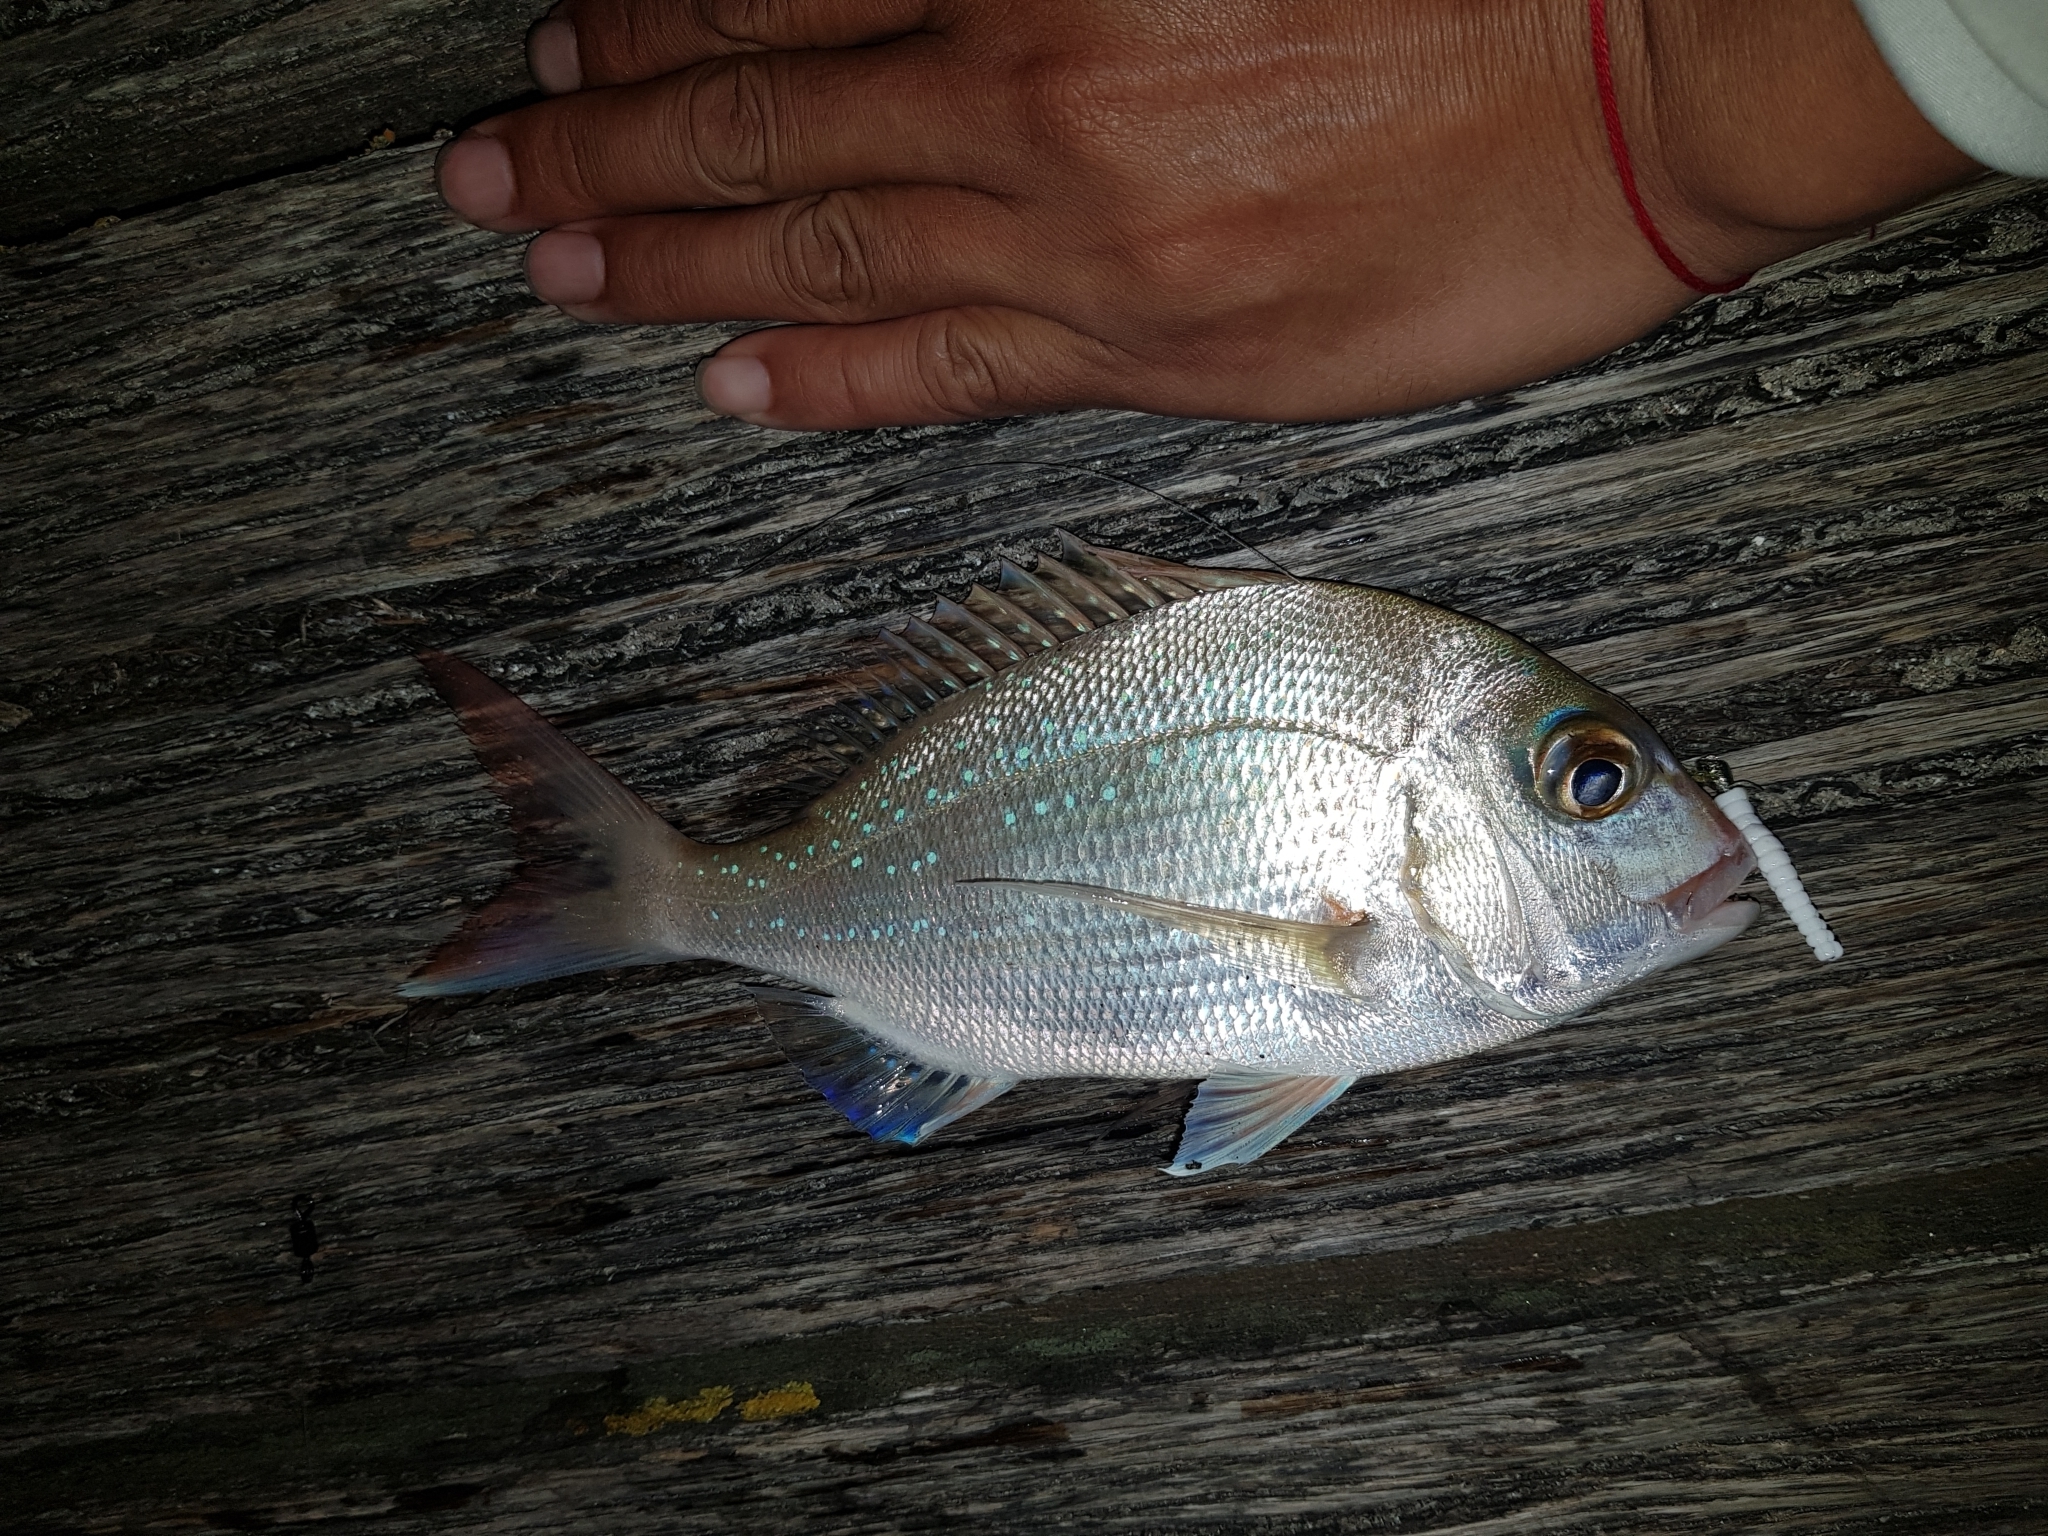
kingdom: Animalia
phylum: Chordata
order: Perciformes
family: Sparidae
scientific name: Sparidae
